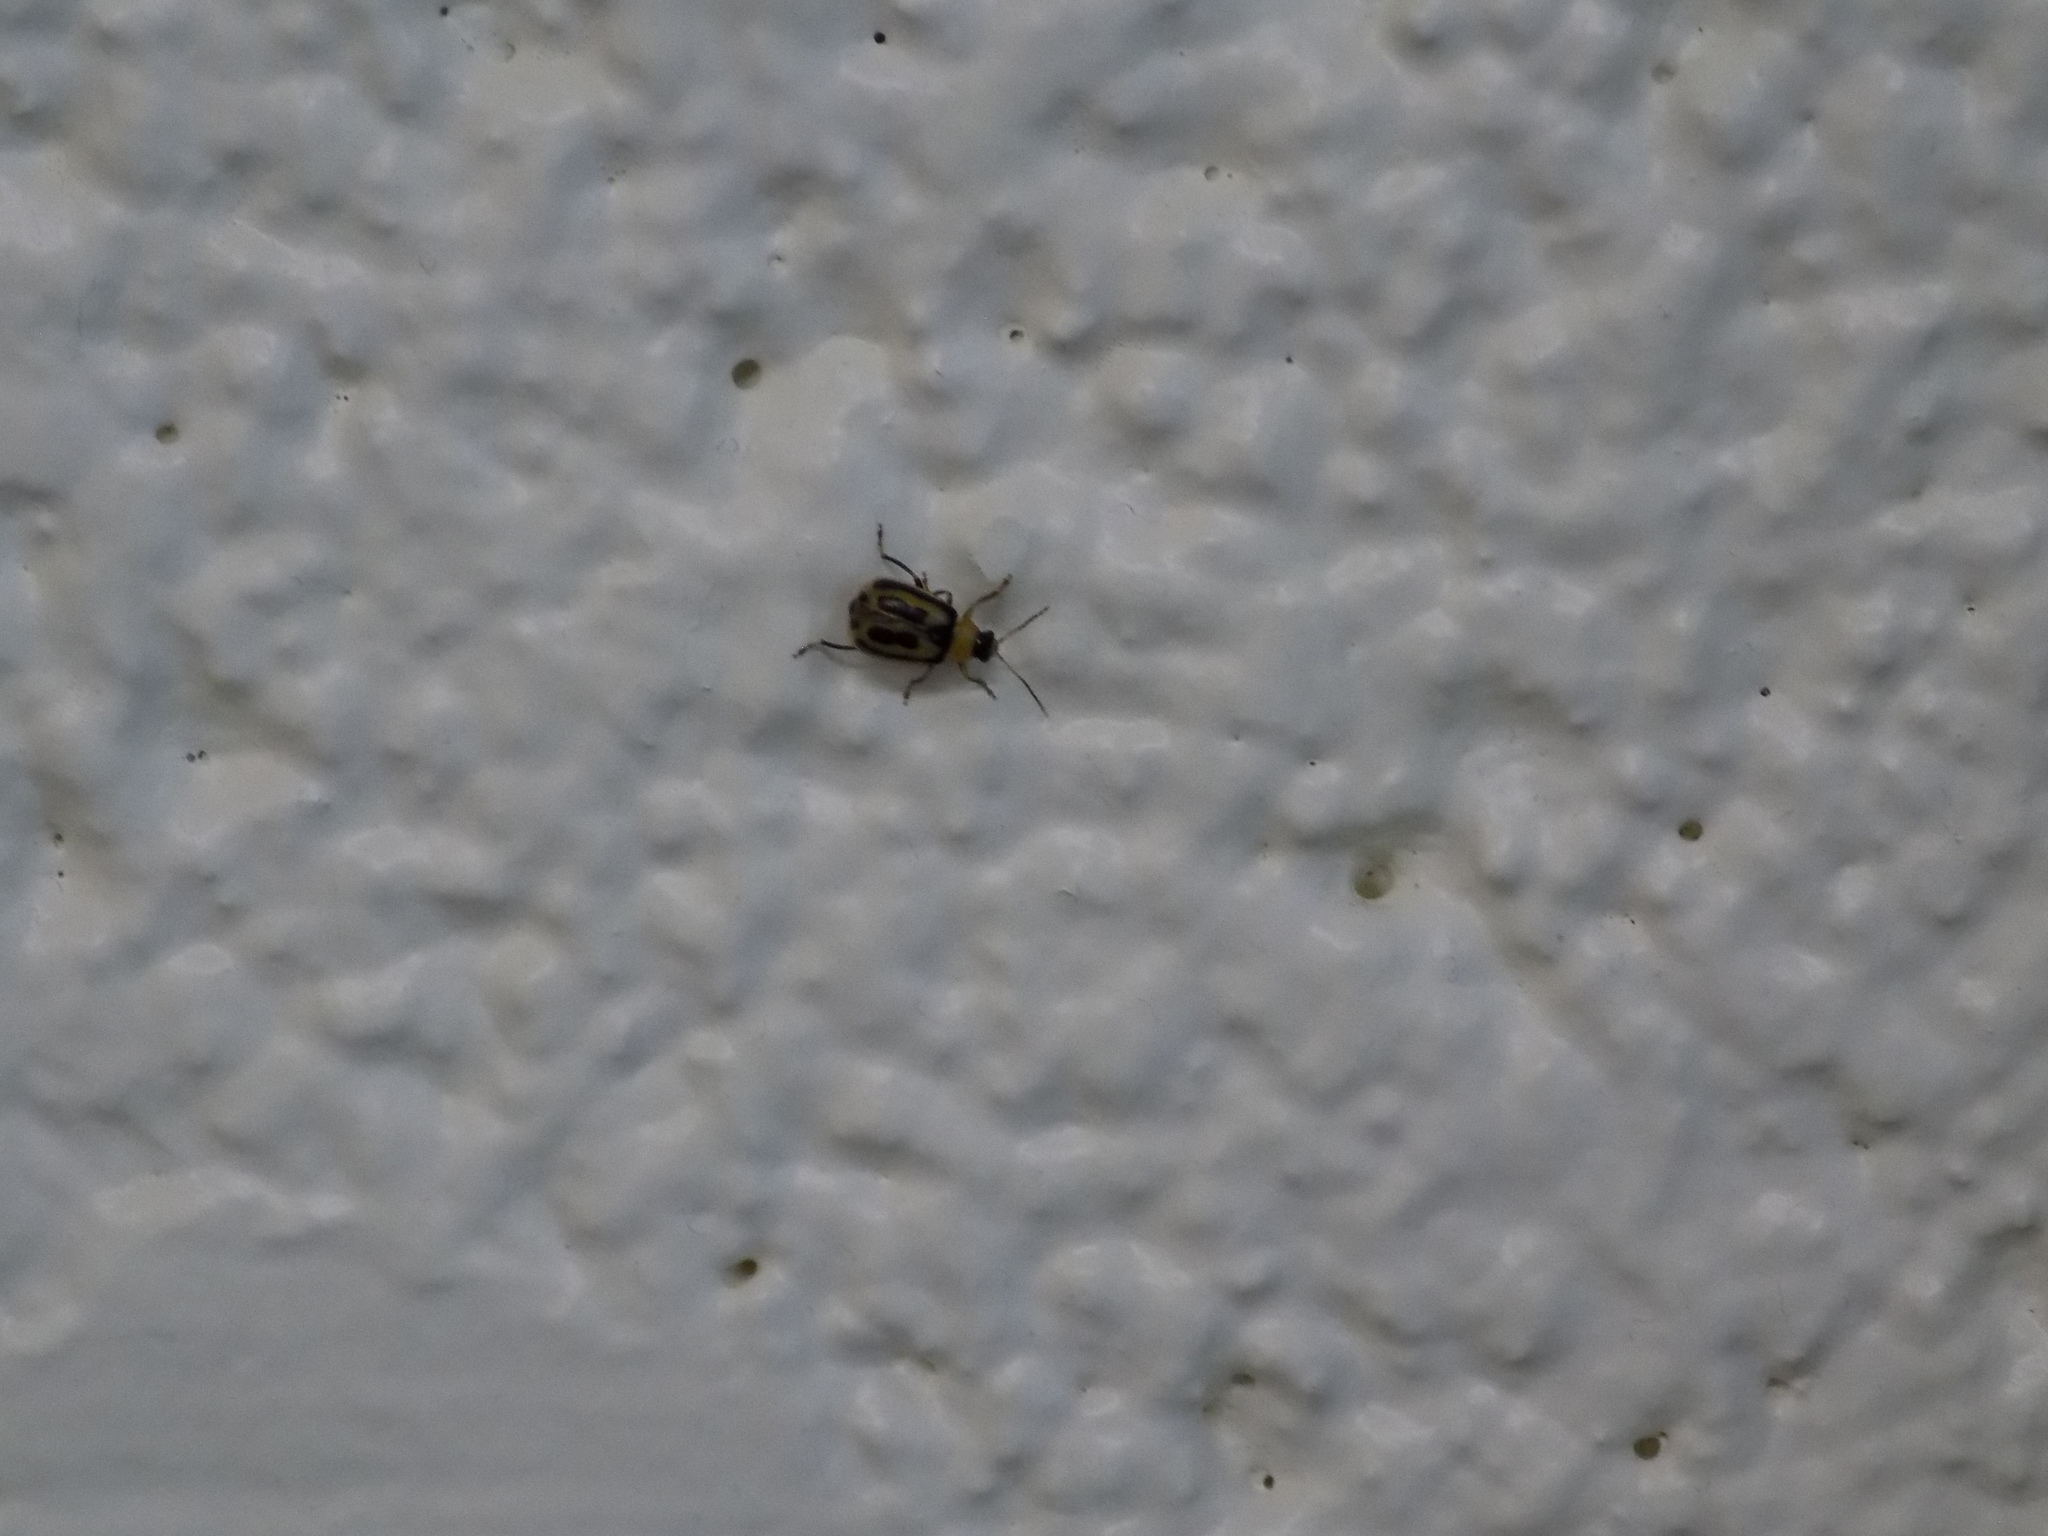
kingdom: Animalia
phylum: Arthropoda
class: Insecta
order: Coleoptera
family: Chrysomelidae
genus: Cerotoma
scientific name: Cerotoma trifurcata
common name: Bean leaf beetle
